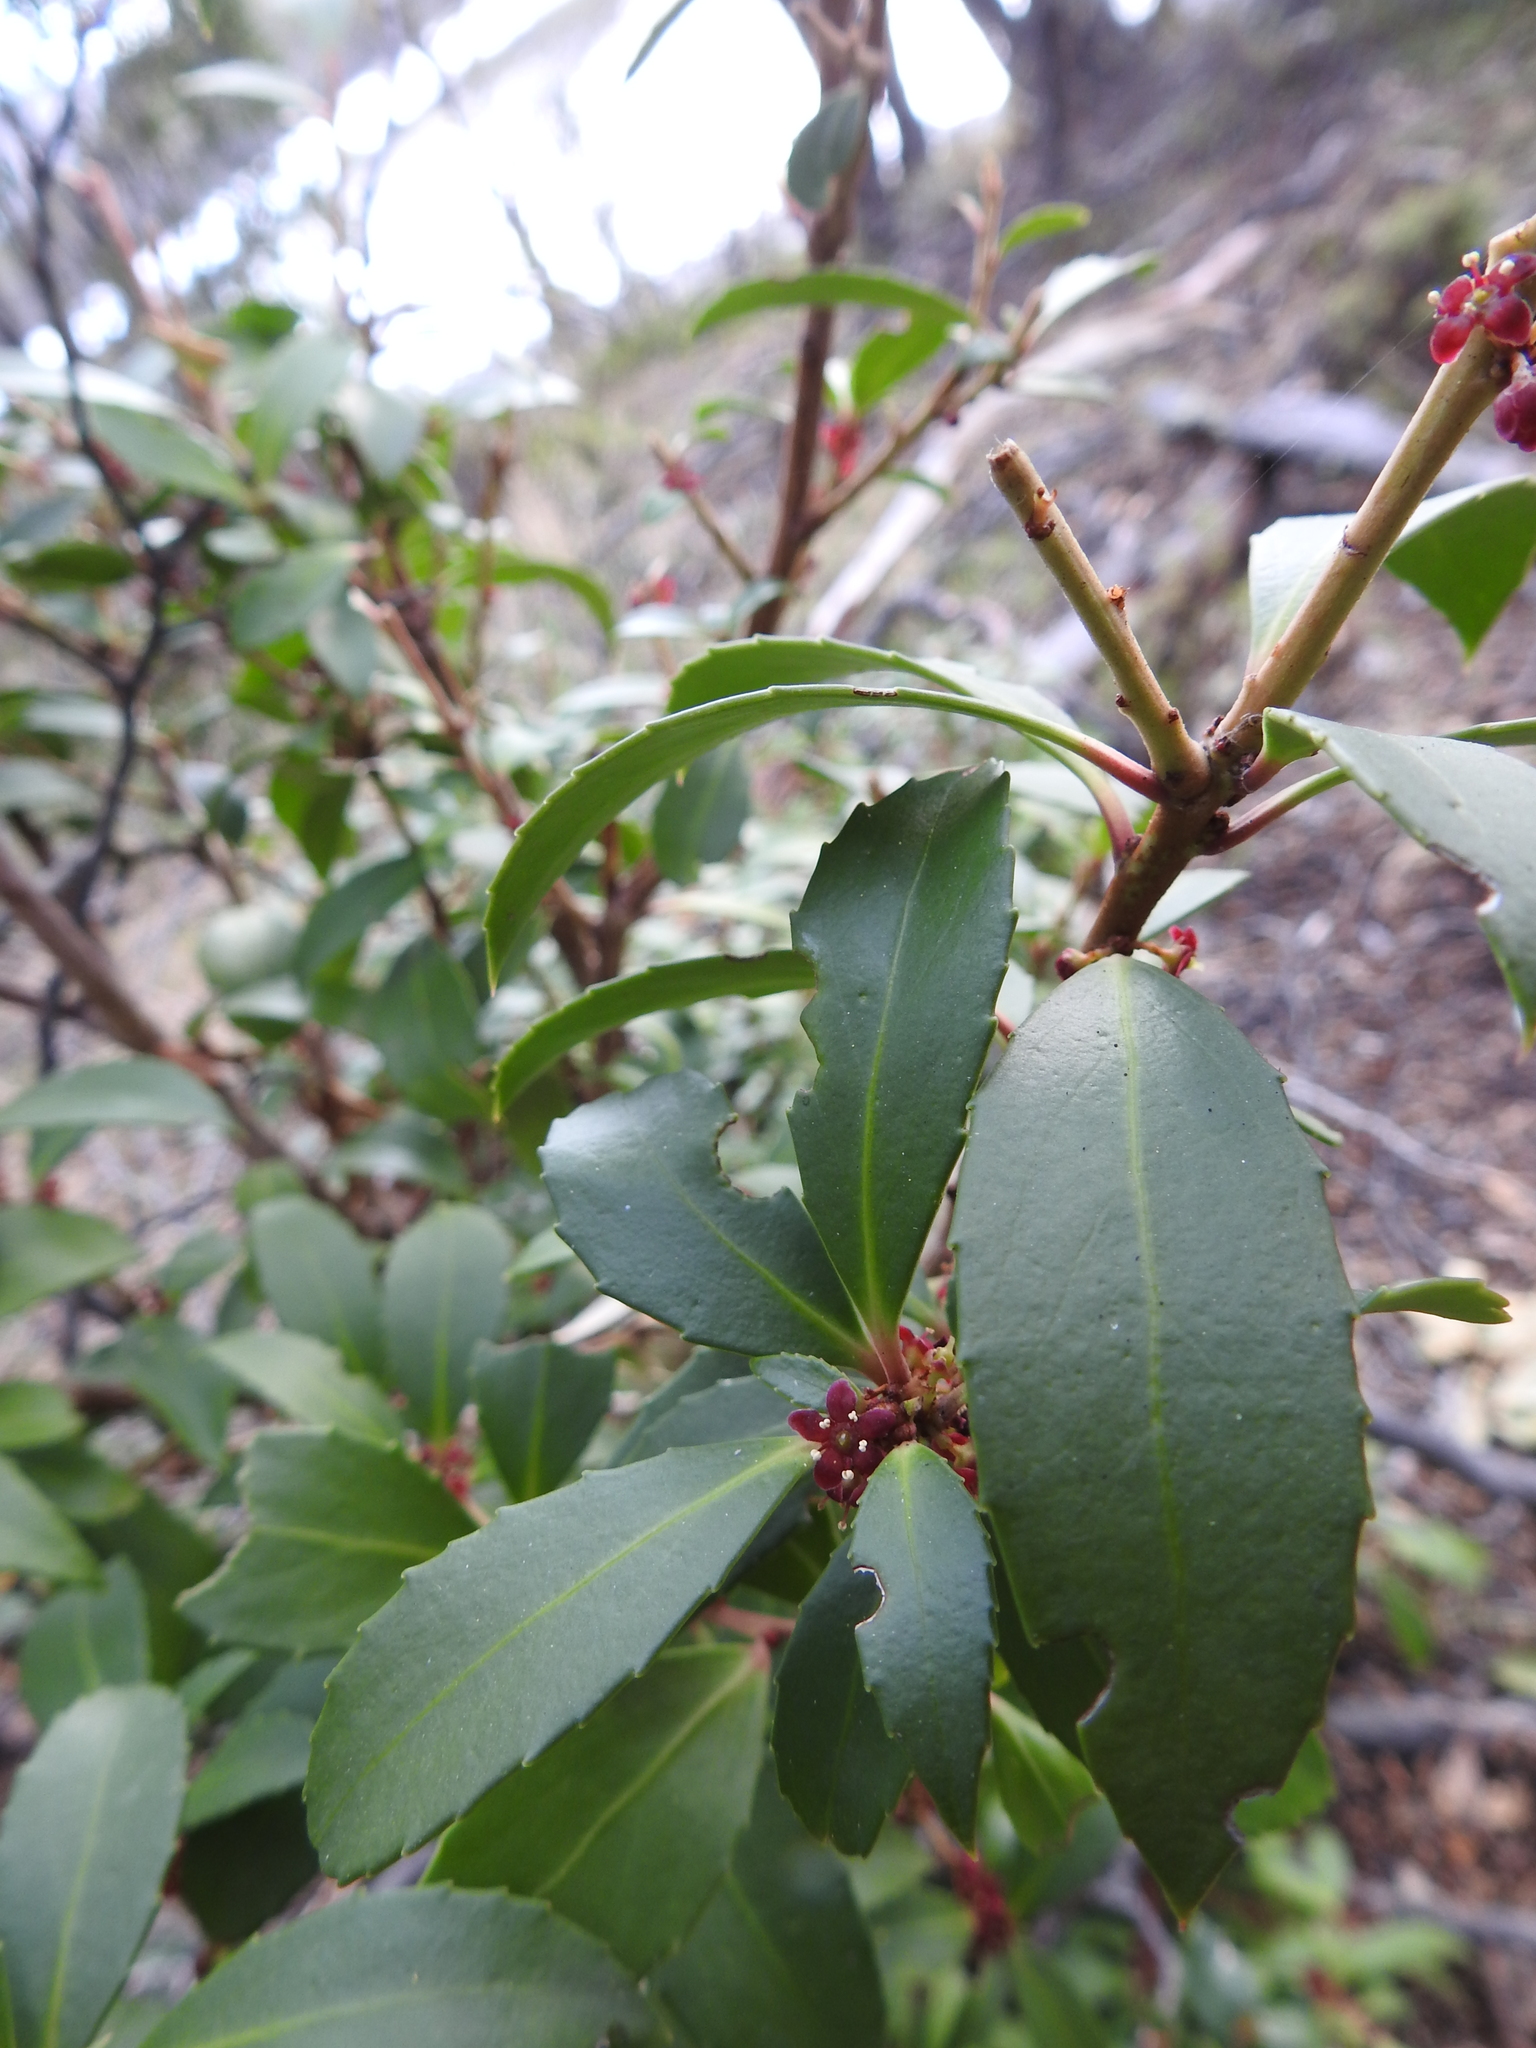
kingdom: Plantae
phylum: Tracheophyta
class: Magnoliopsida
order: Celastrales
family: Celastraceae
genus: Maytenus
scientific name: Maytenus magellanica
